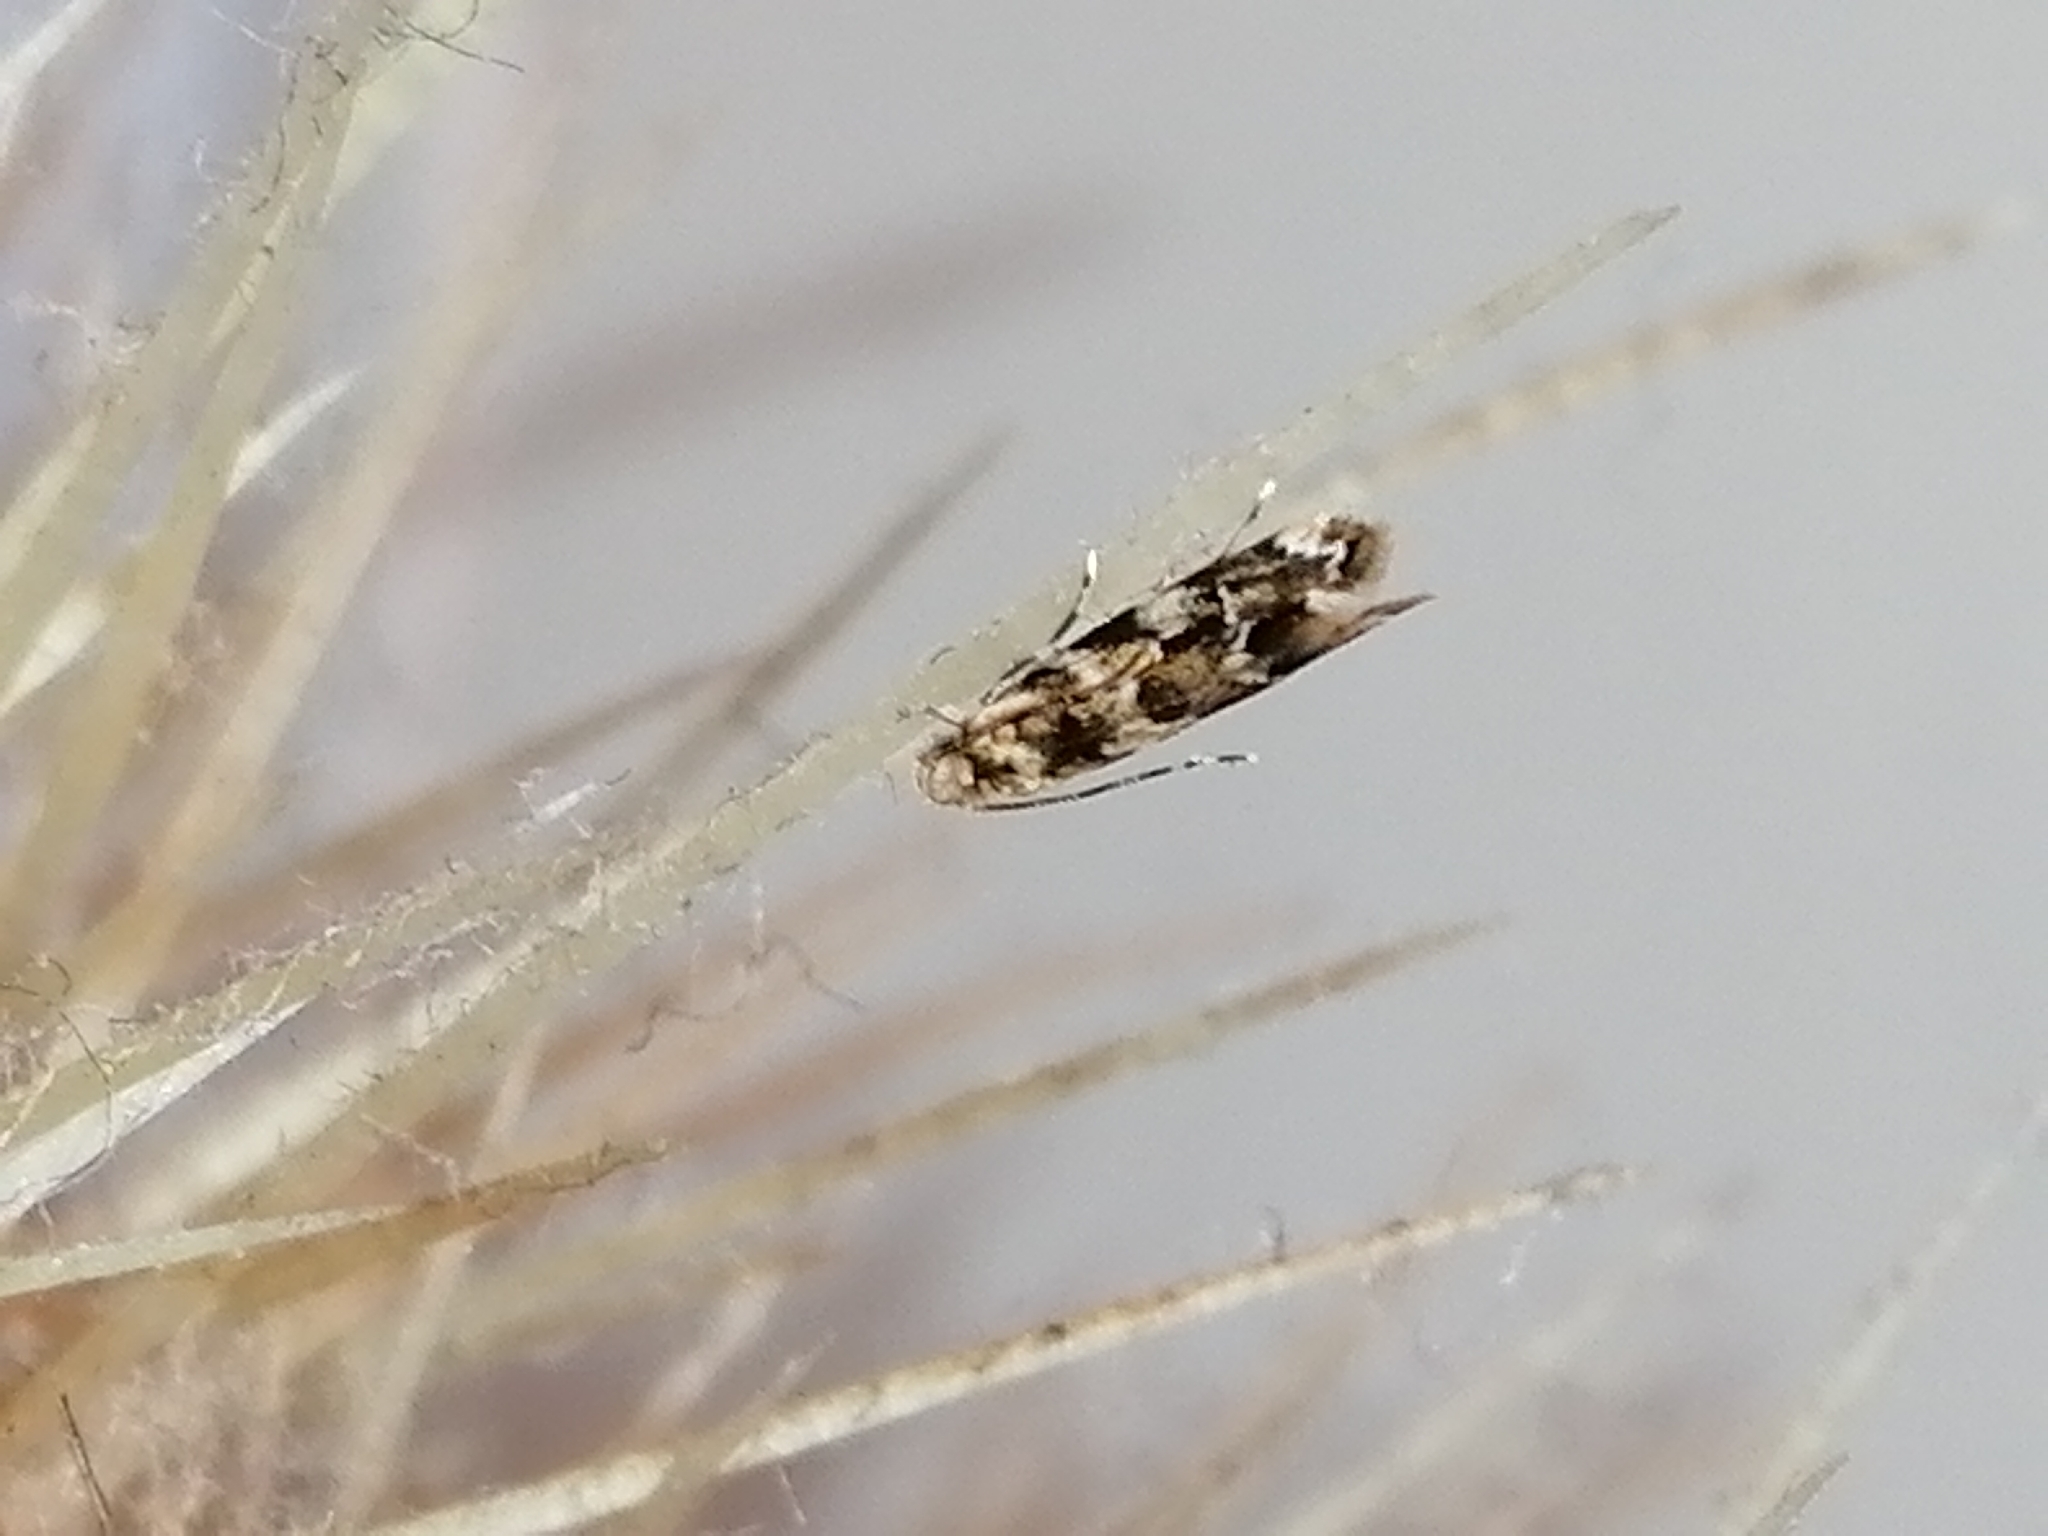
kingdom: Animalia
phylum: Arthropoda
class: Insecta
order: Lepidoptera
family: Dryadaulidae
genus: Dryadaula
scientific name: Dryadaula pactolia
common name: Cellar clothes
